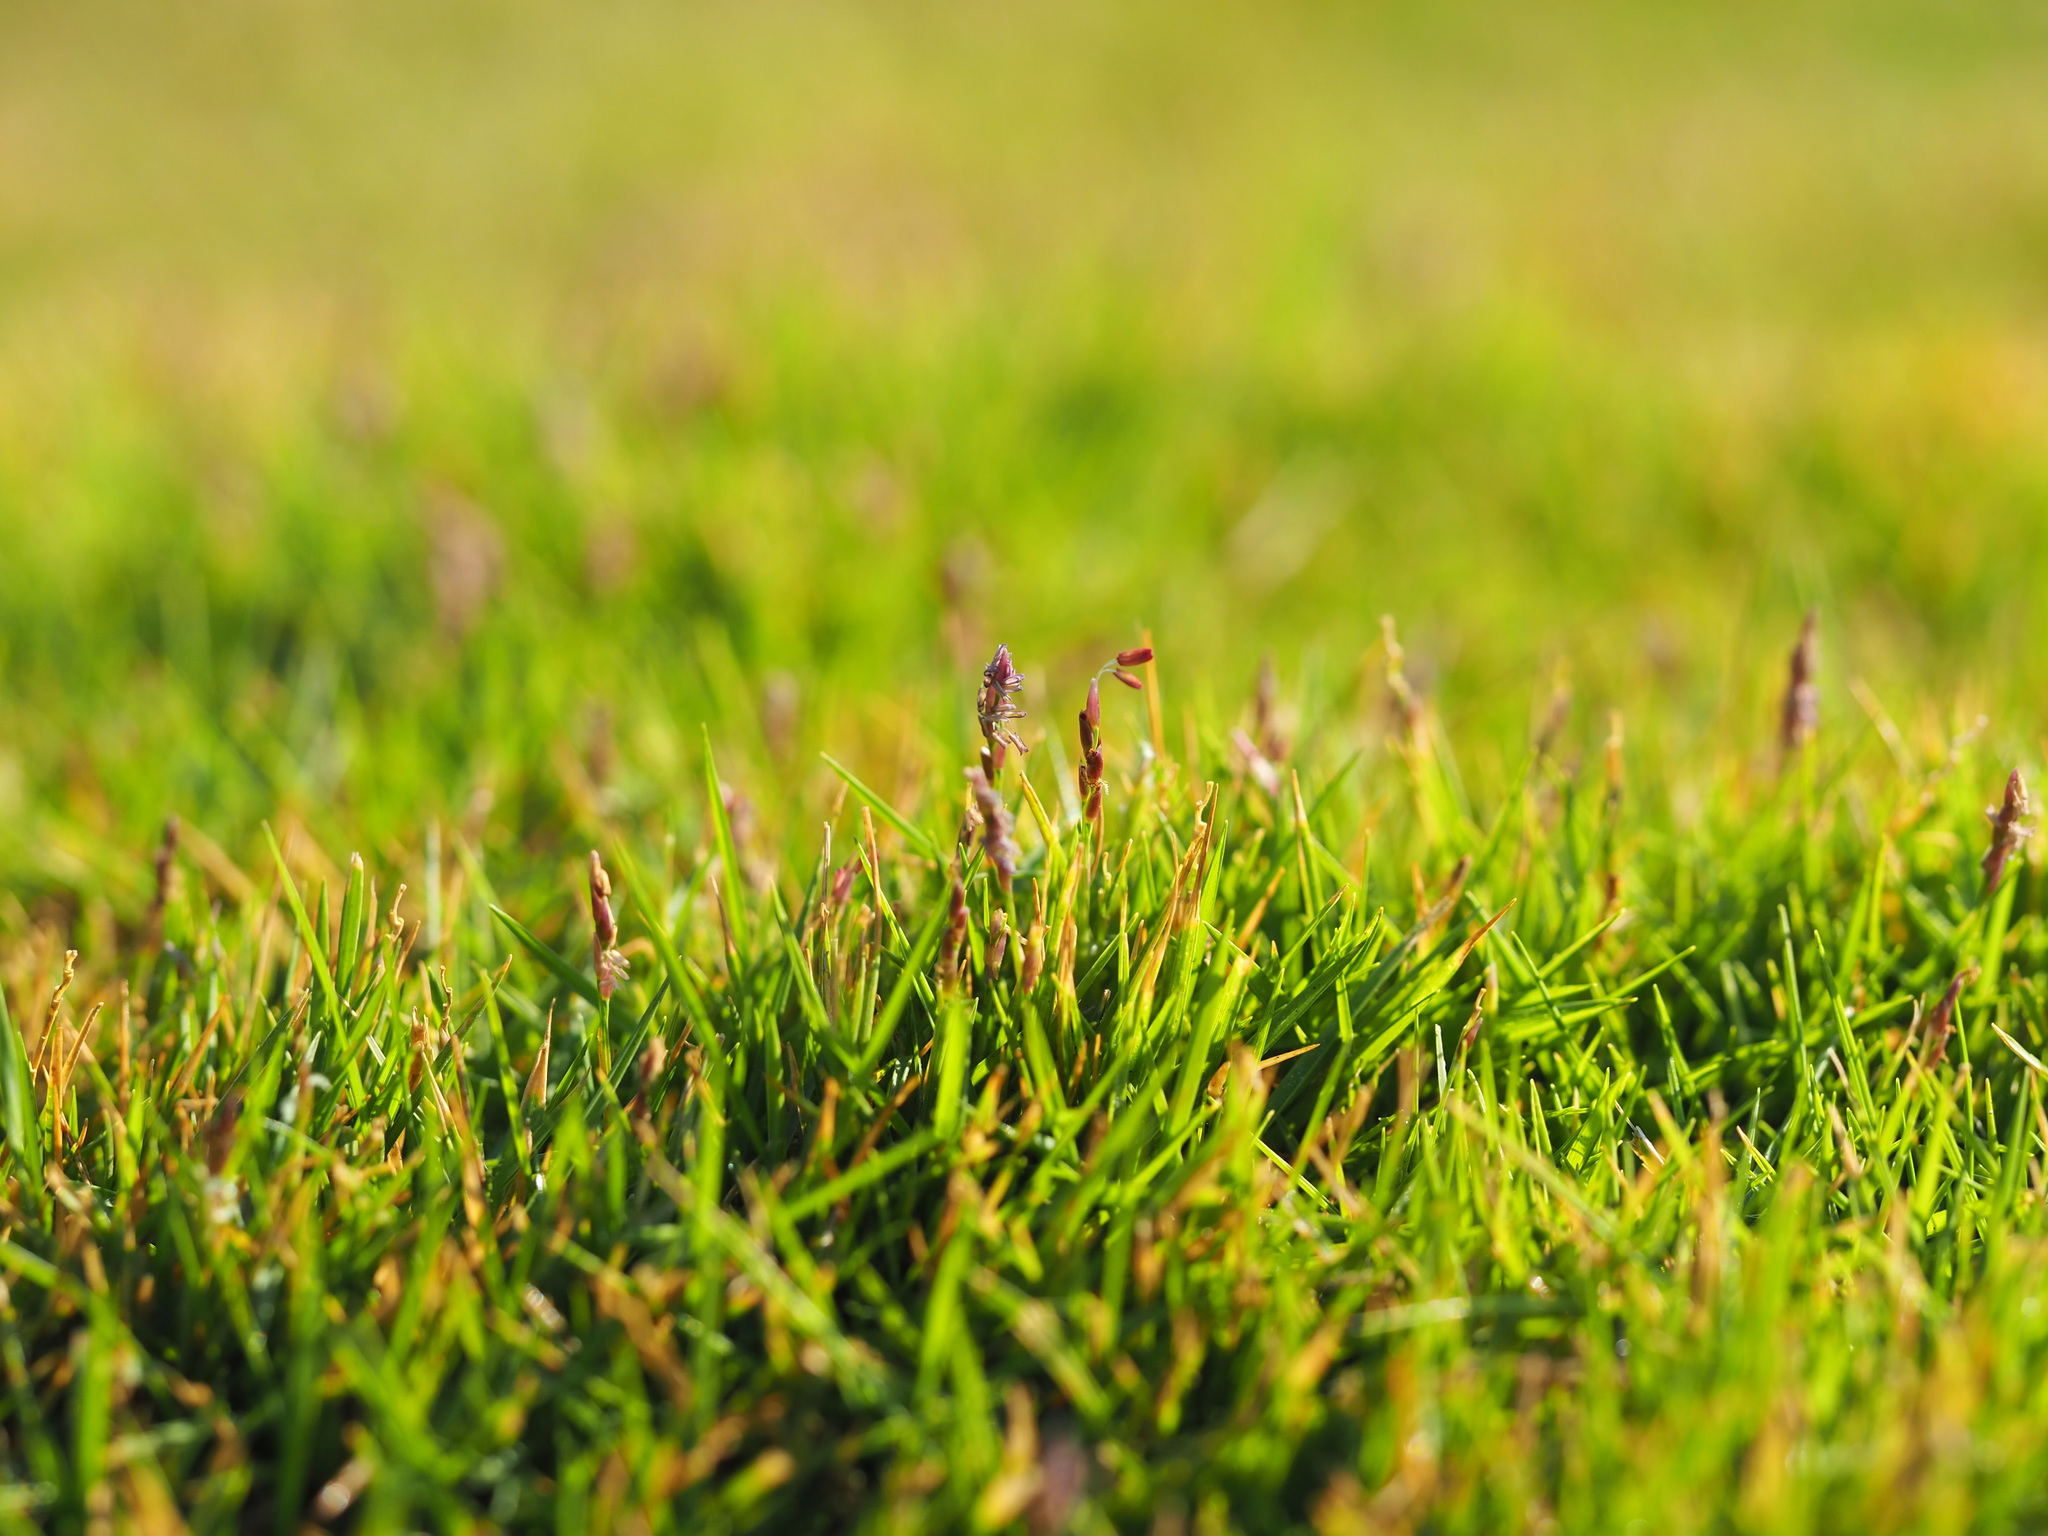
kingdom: Plantae
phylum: Tracheophyta
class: Liliopsida
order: Poales
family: Poaceae
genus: Zoysia
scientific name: Zoysia matrella
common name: Manila grass
